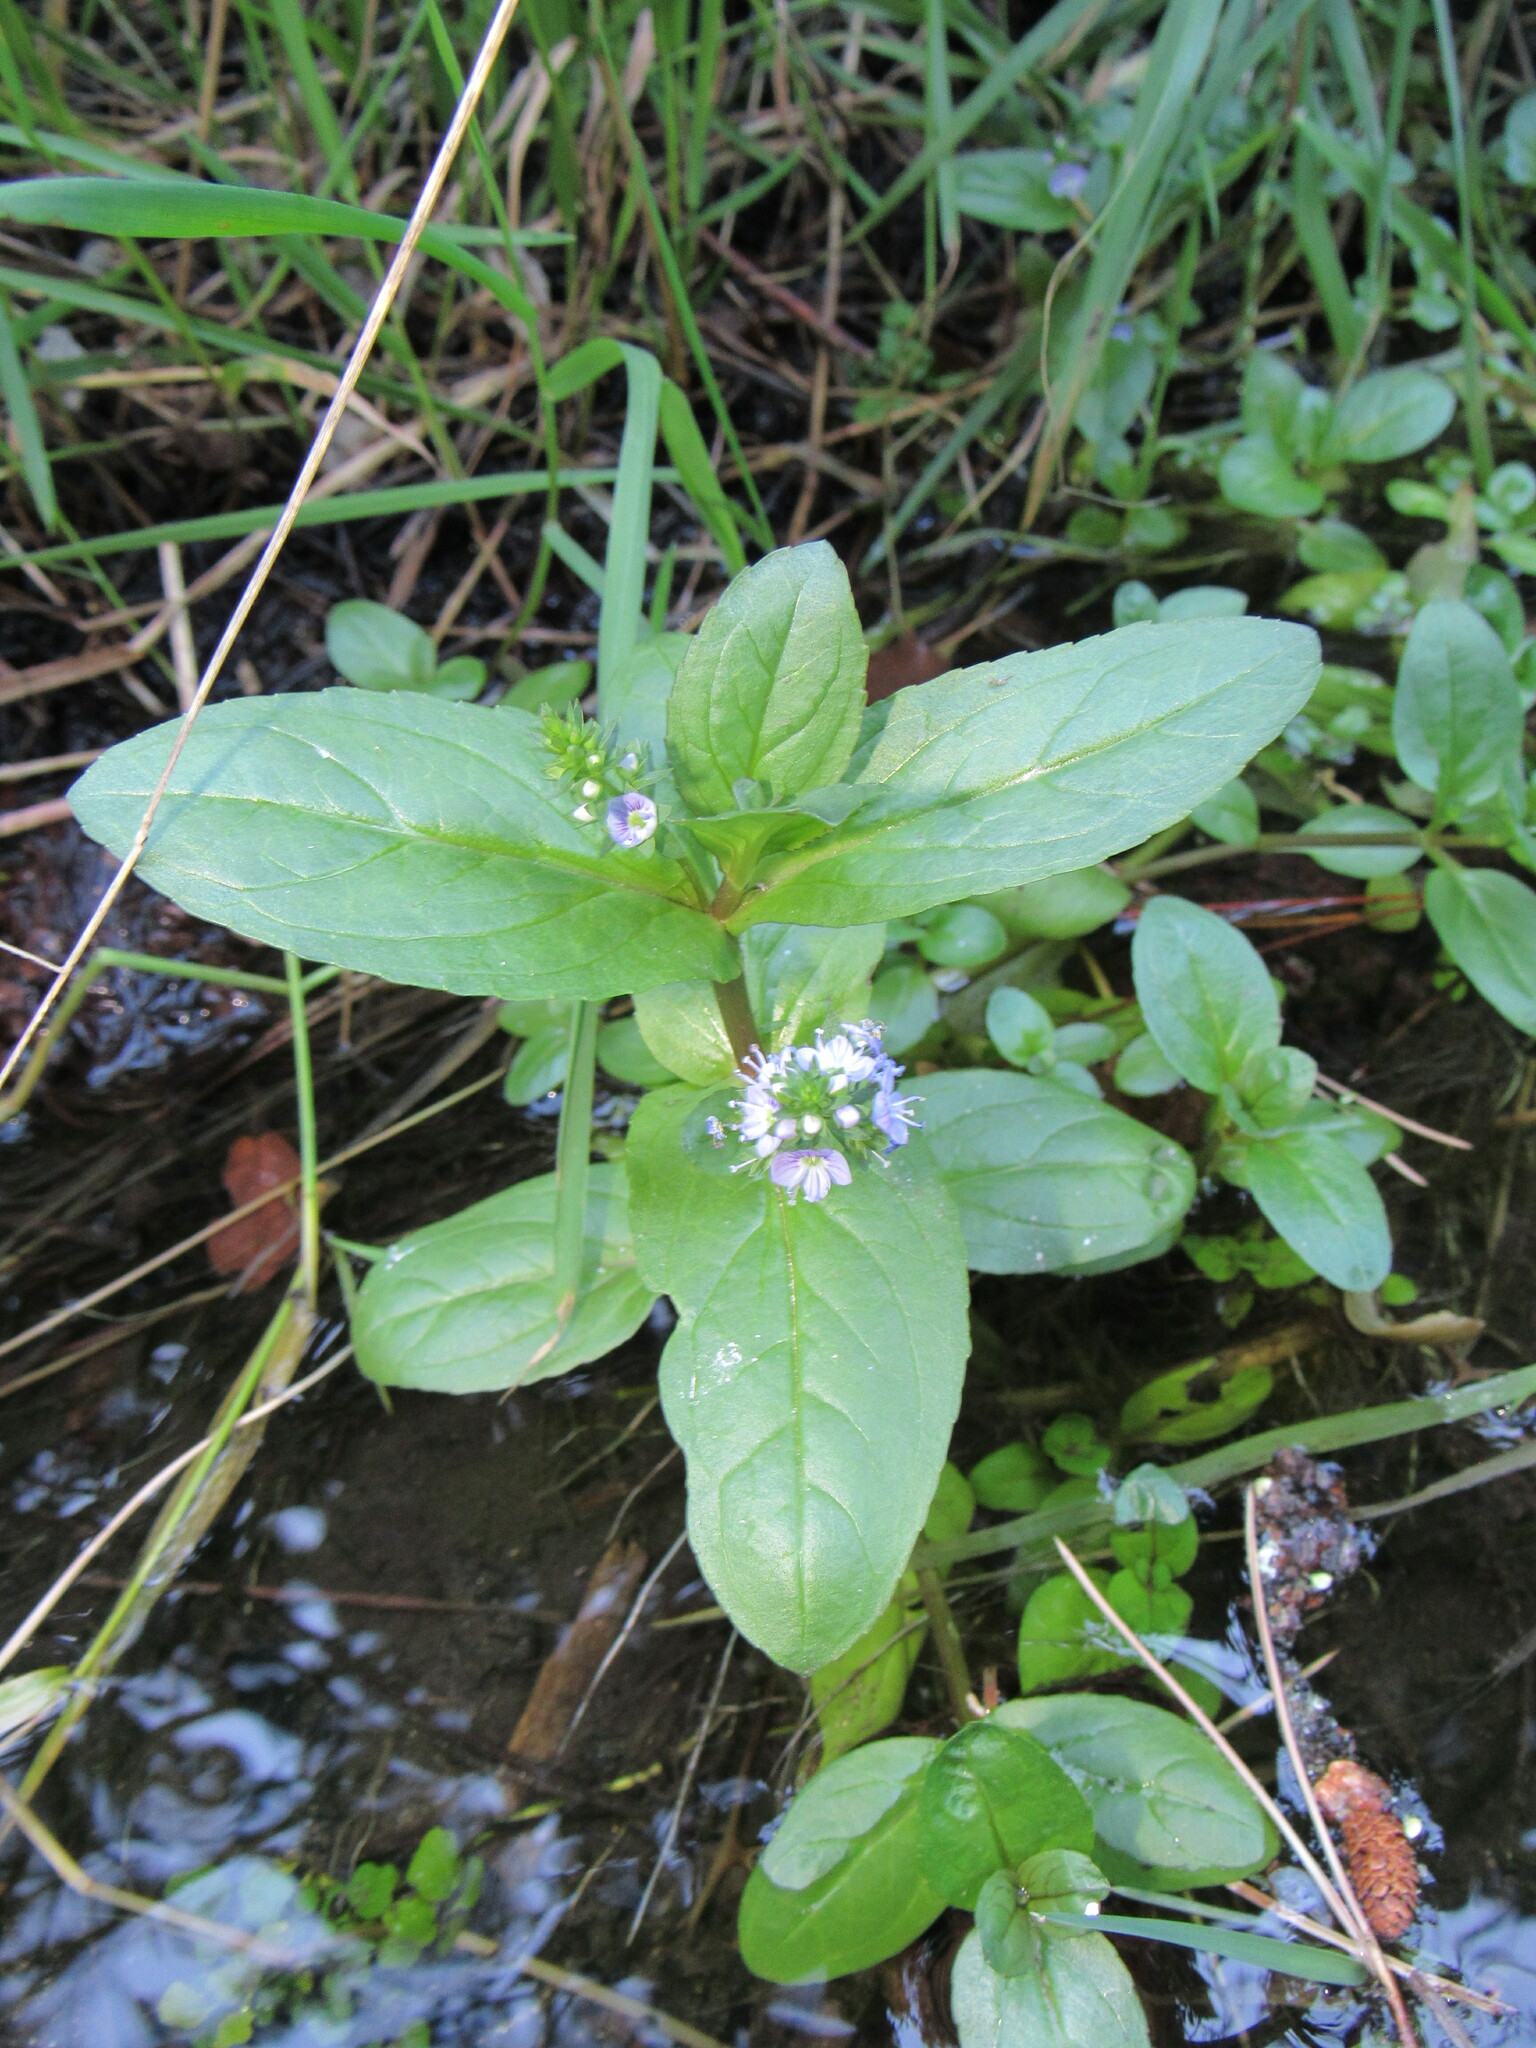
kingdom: Plantae
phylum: Tracheophyta
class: Magnoliopsida
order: Lamiales
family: Plantaginaceae
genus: Veronica
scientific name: Veronica anagallis-aquatica
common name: Water speedwell
